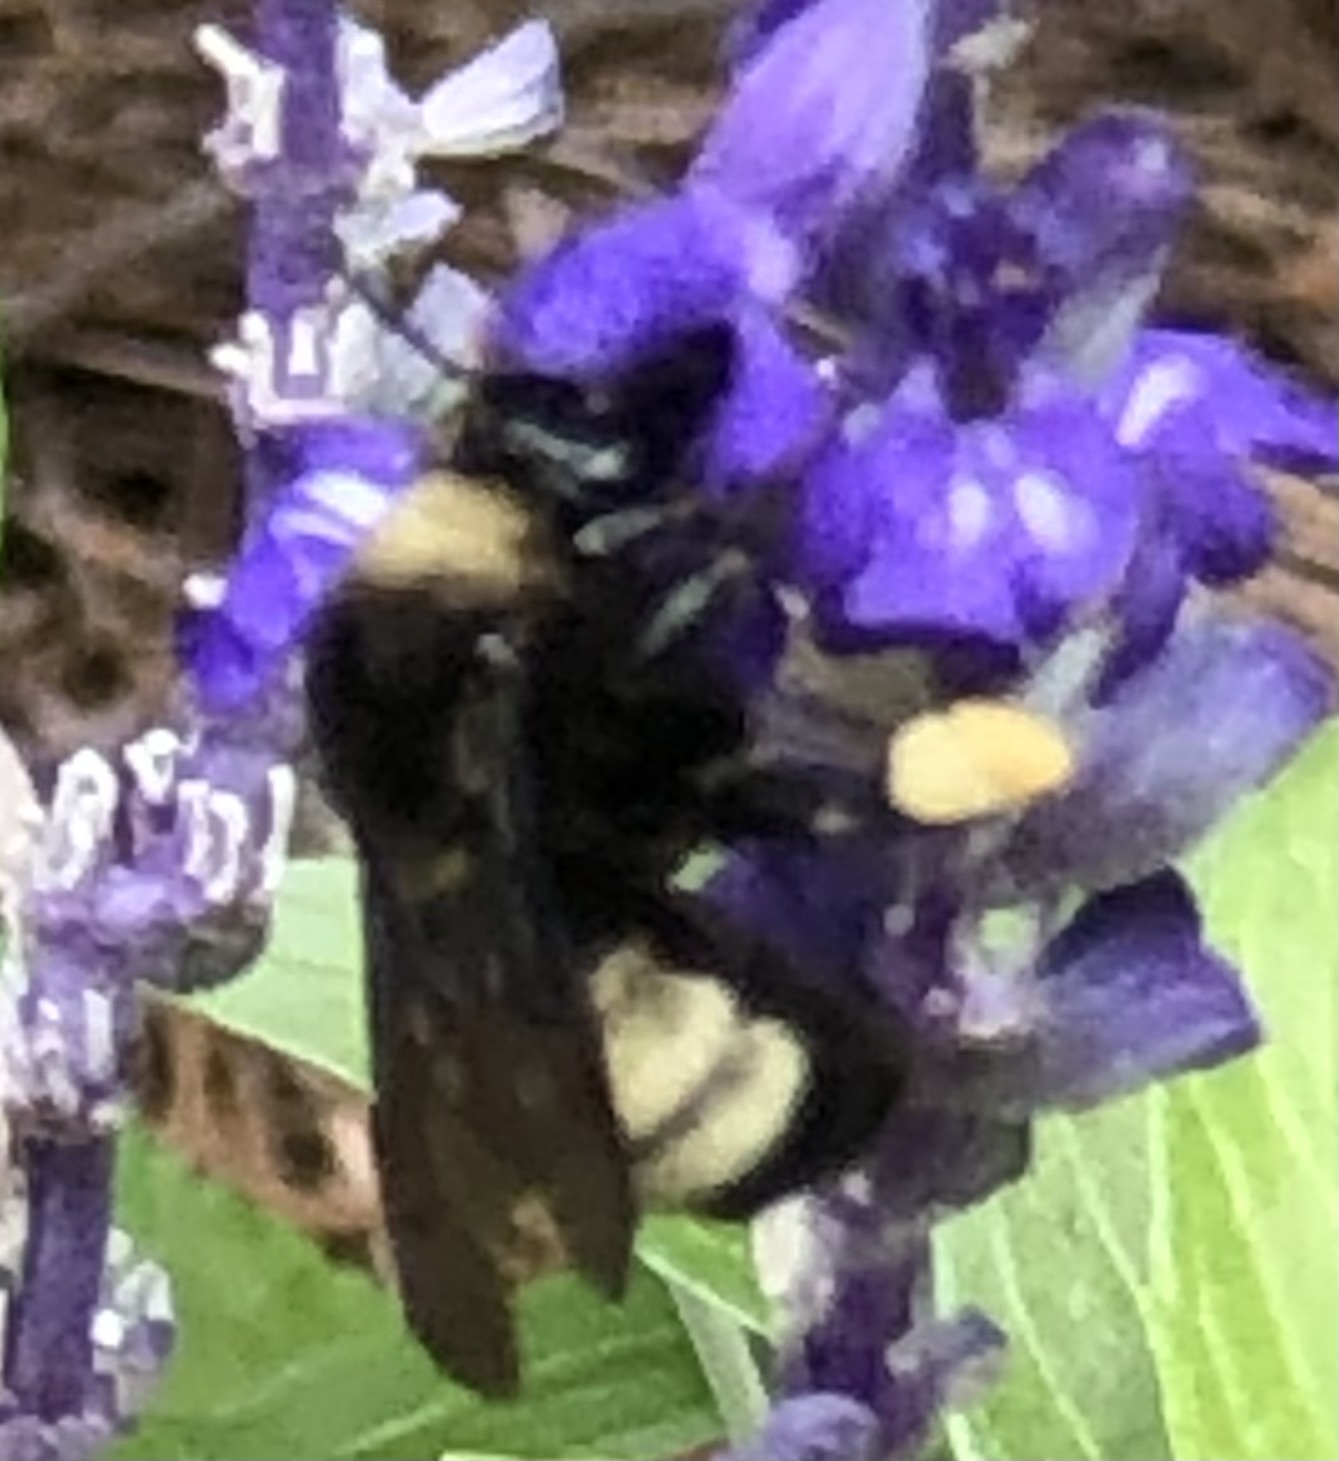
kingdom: Animalia
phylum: Arthropoda
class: Insecta
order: Hymenoptera
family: Apidae
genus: Bombus
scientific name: Bombus pensylvanicus
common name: Bumble bee
